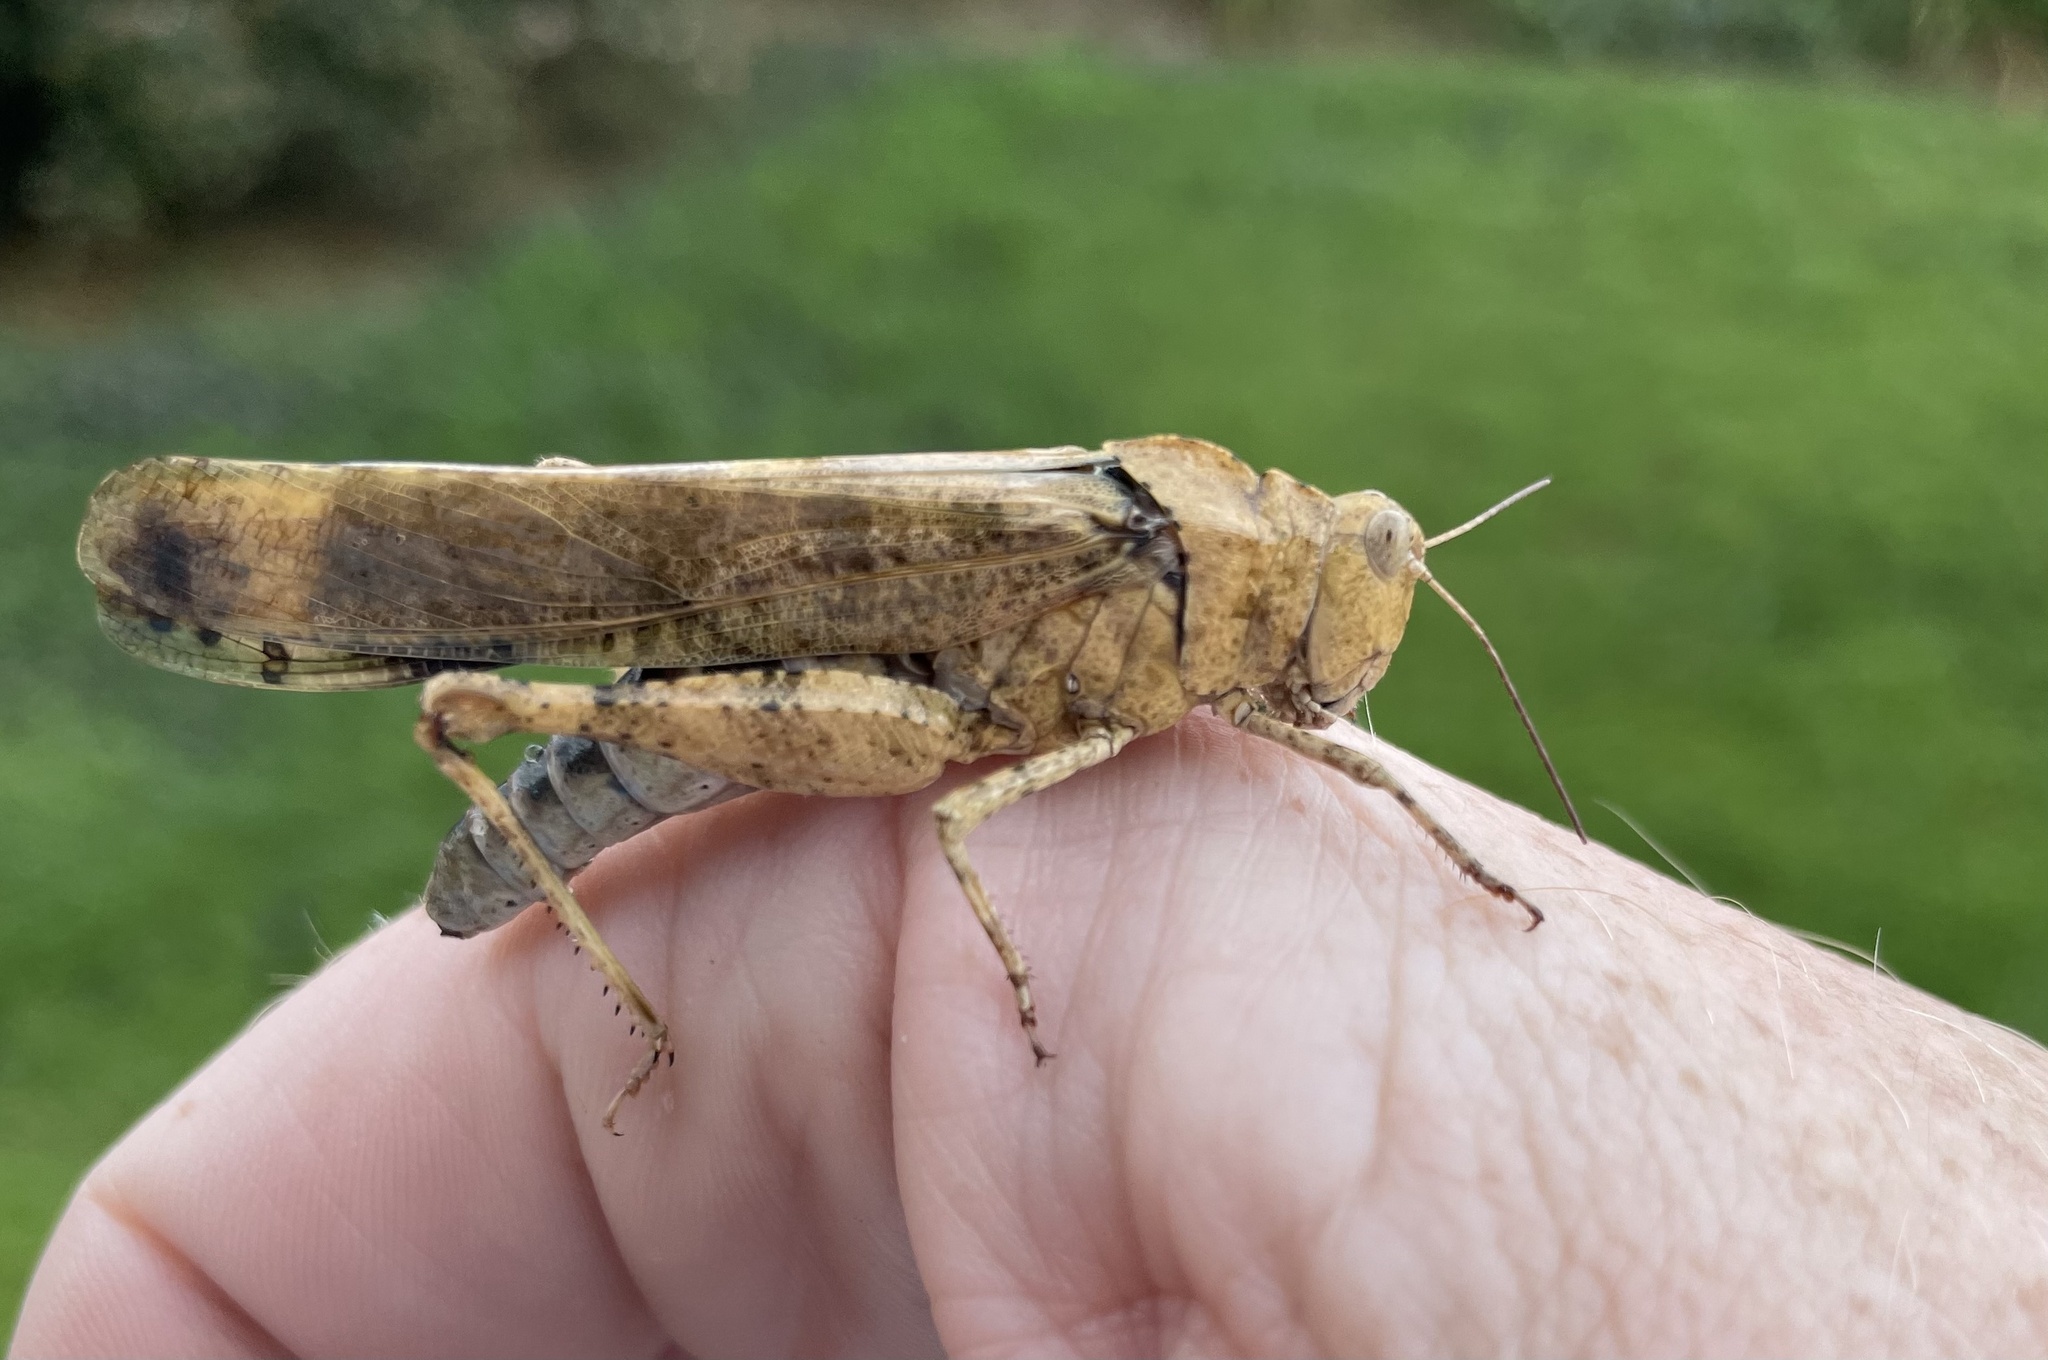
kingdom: Animalia
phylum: Arthropoda
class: Insecta
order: Orthoptera
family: Acrididae
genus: Dissosteira
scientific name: Dissosteira carolina
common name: Carolina grasshopper
